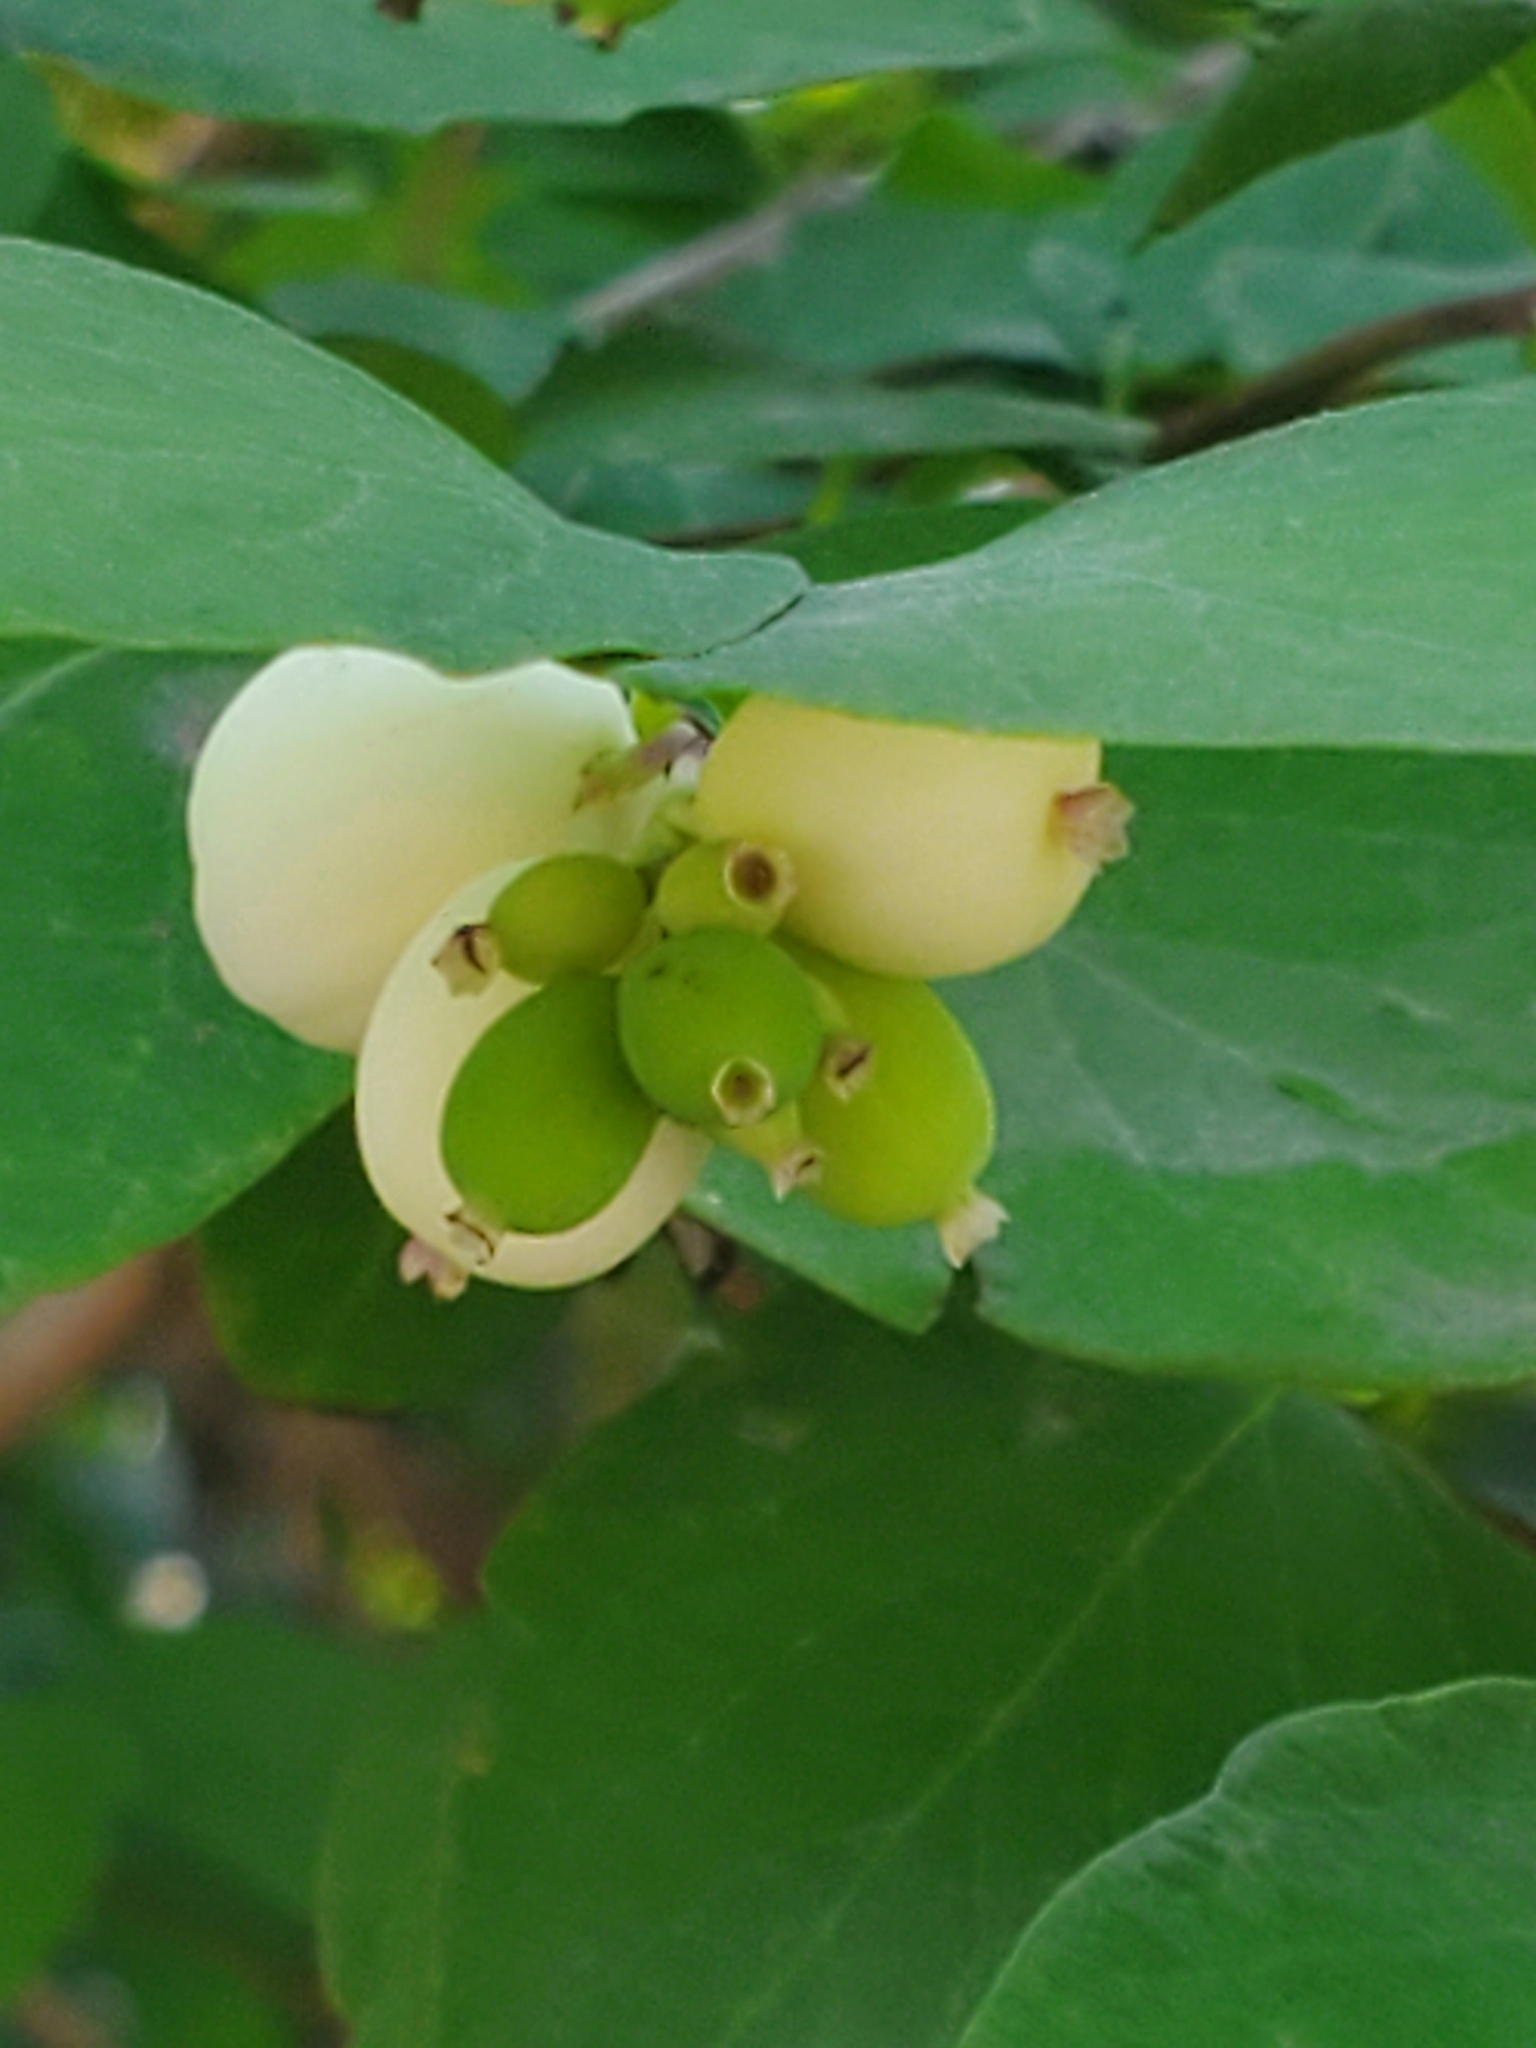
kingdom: Plantae
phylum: Tracheophyta
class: Magnoliopsida
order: Dipsacales
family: Caprifoliaceae
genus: Symphoricarpos
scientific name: Symphoricarpos albus
